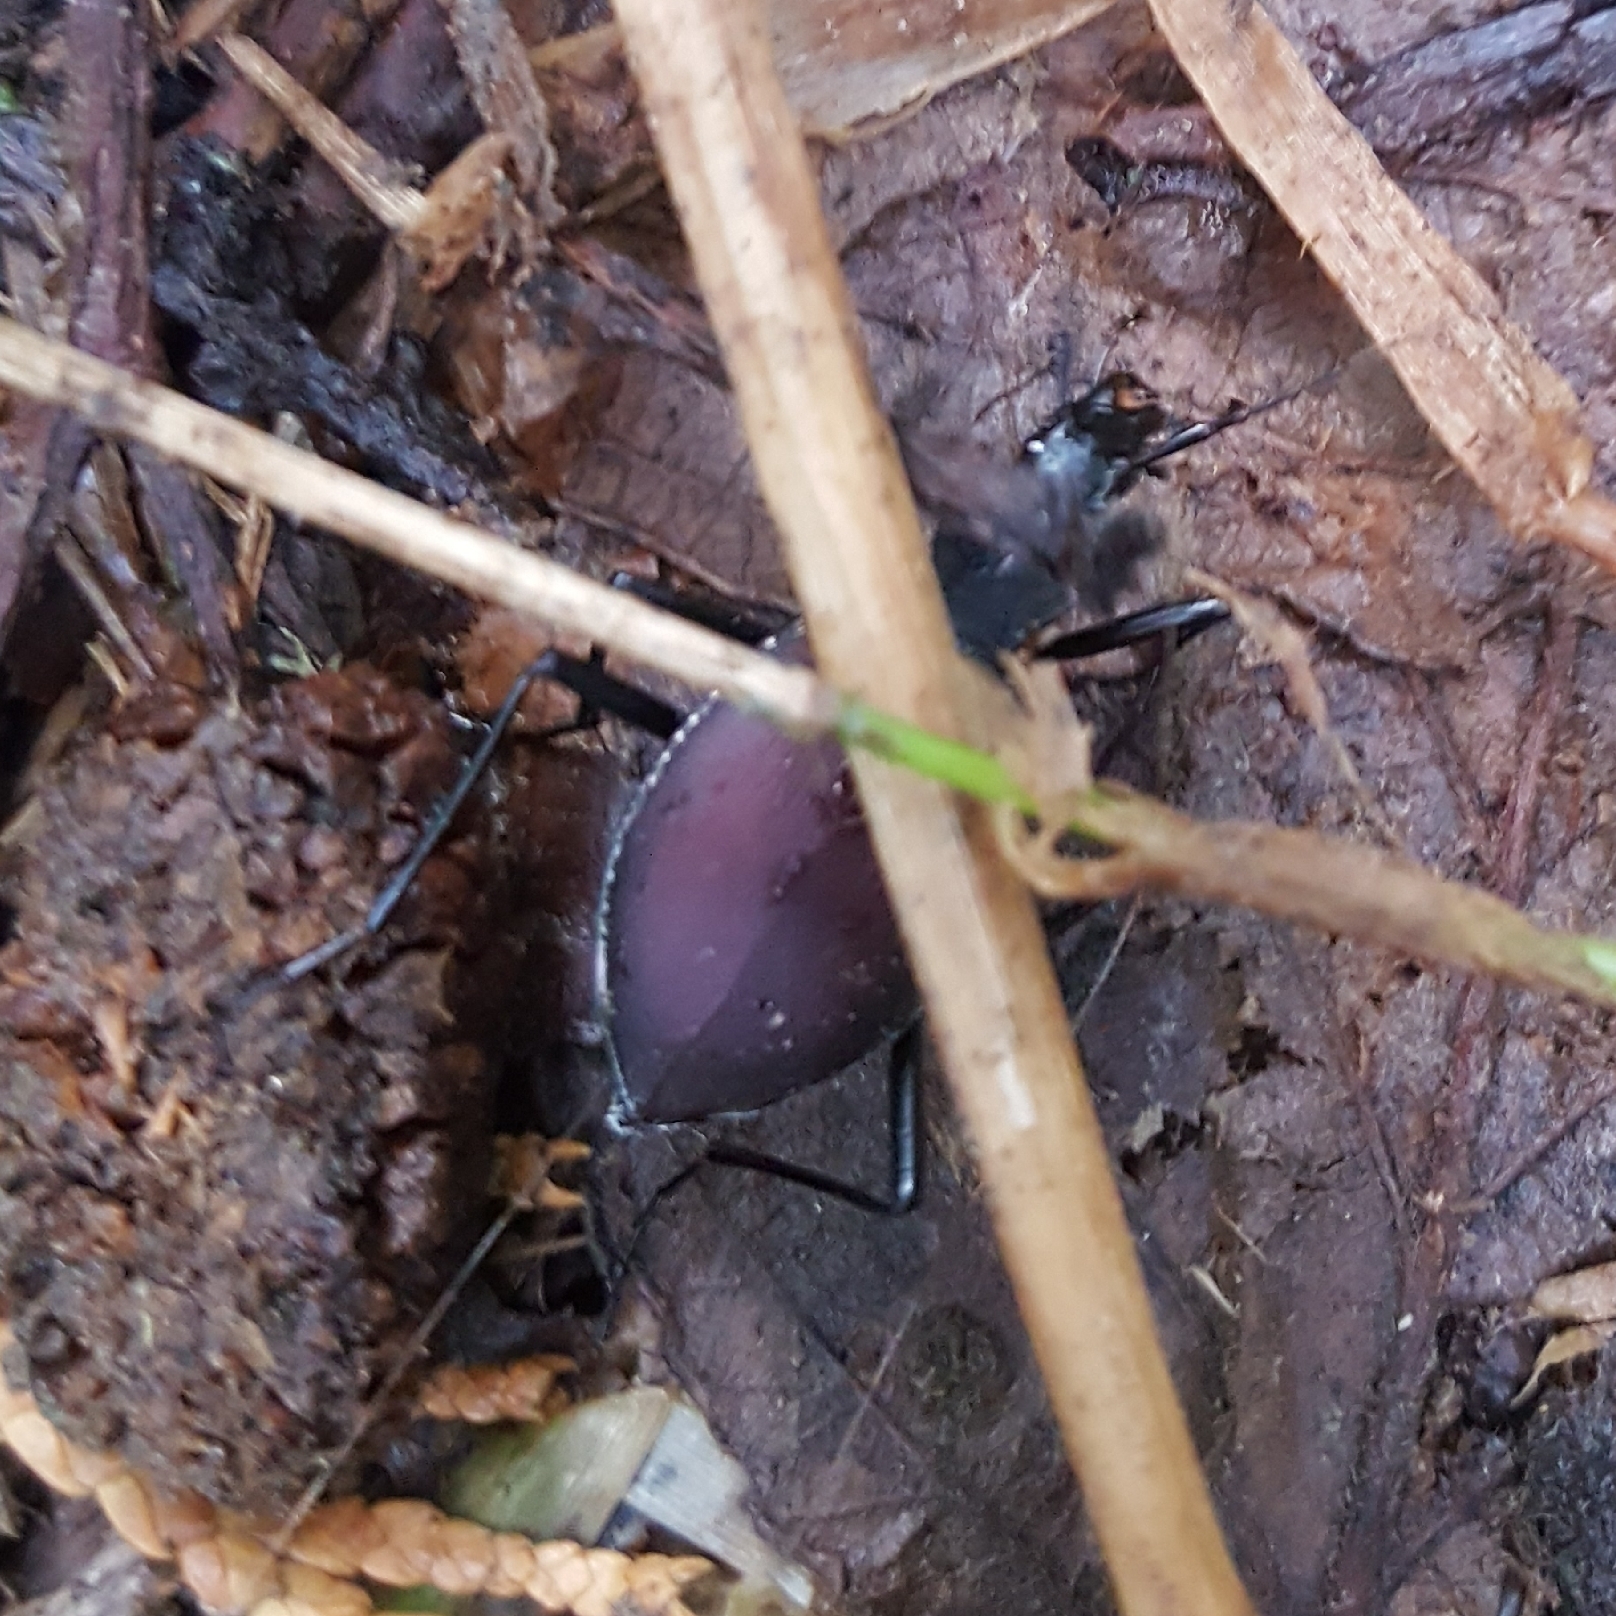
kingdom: Animalia
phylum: Arthropoda
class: Insecta
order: Coleoptera
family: Carabidae
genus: Scaphinotus
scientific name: Scaphinotus angusticollis
